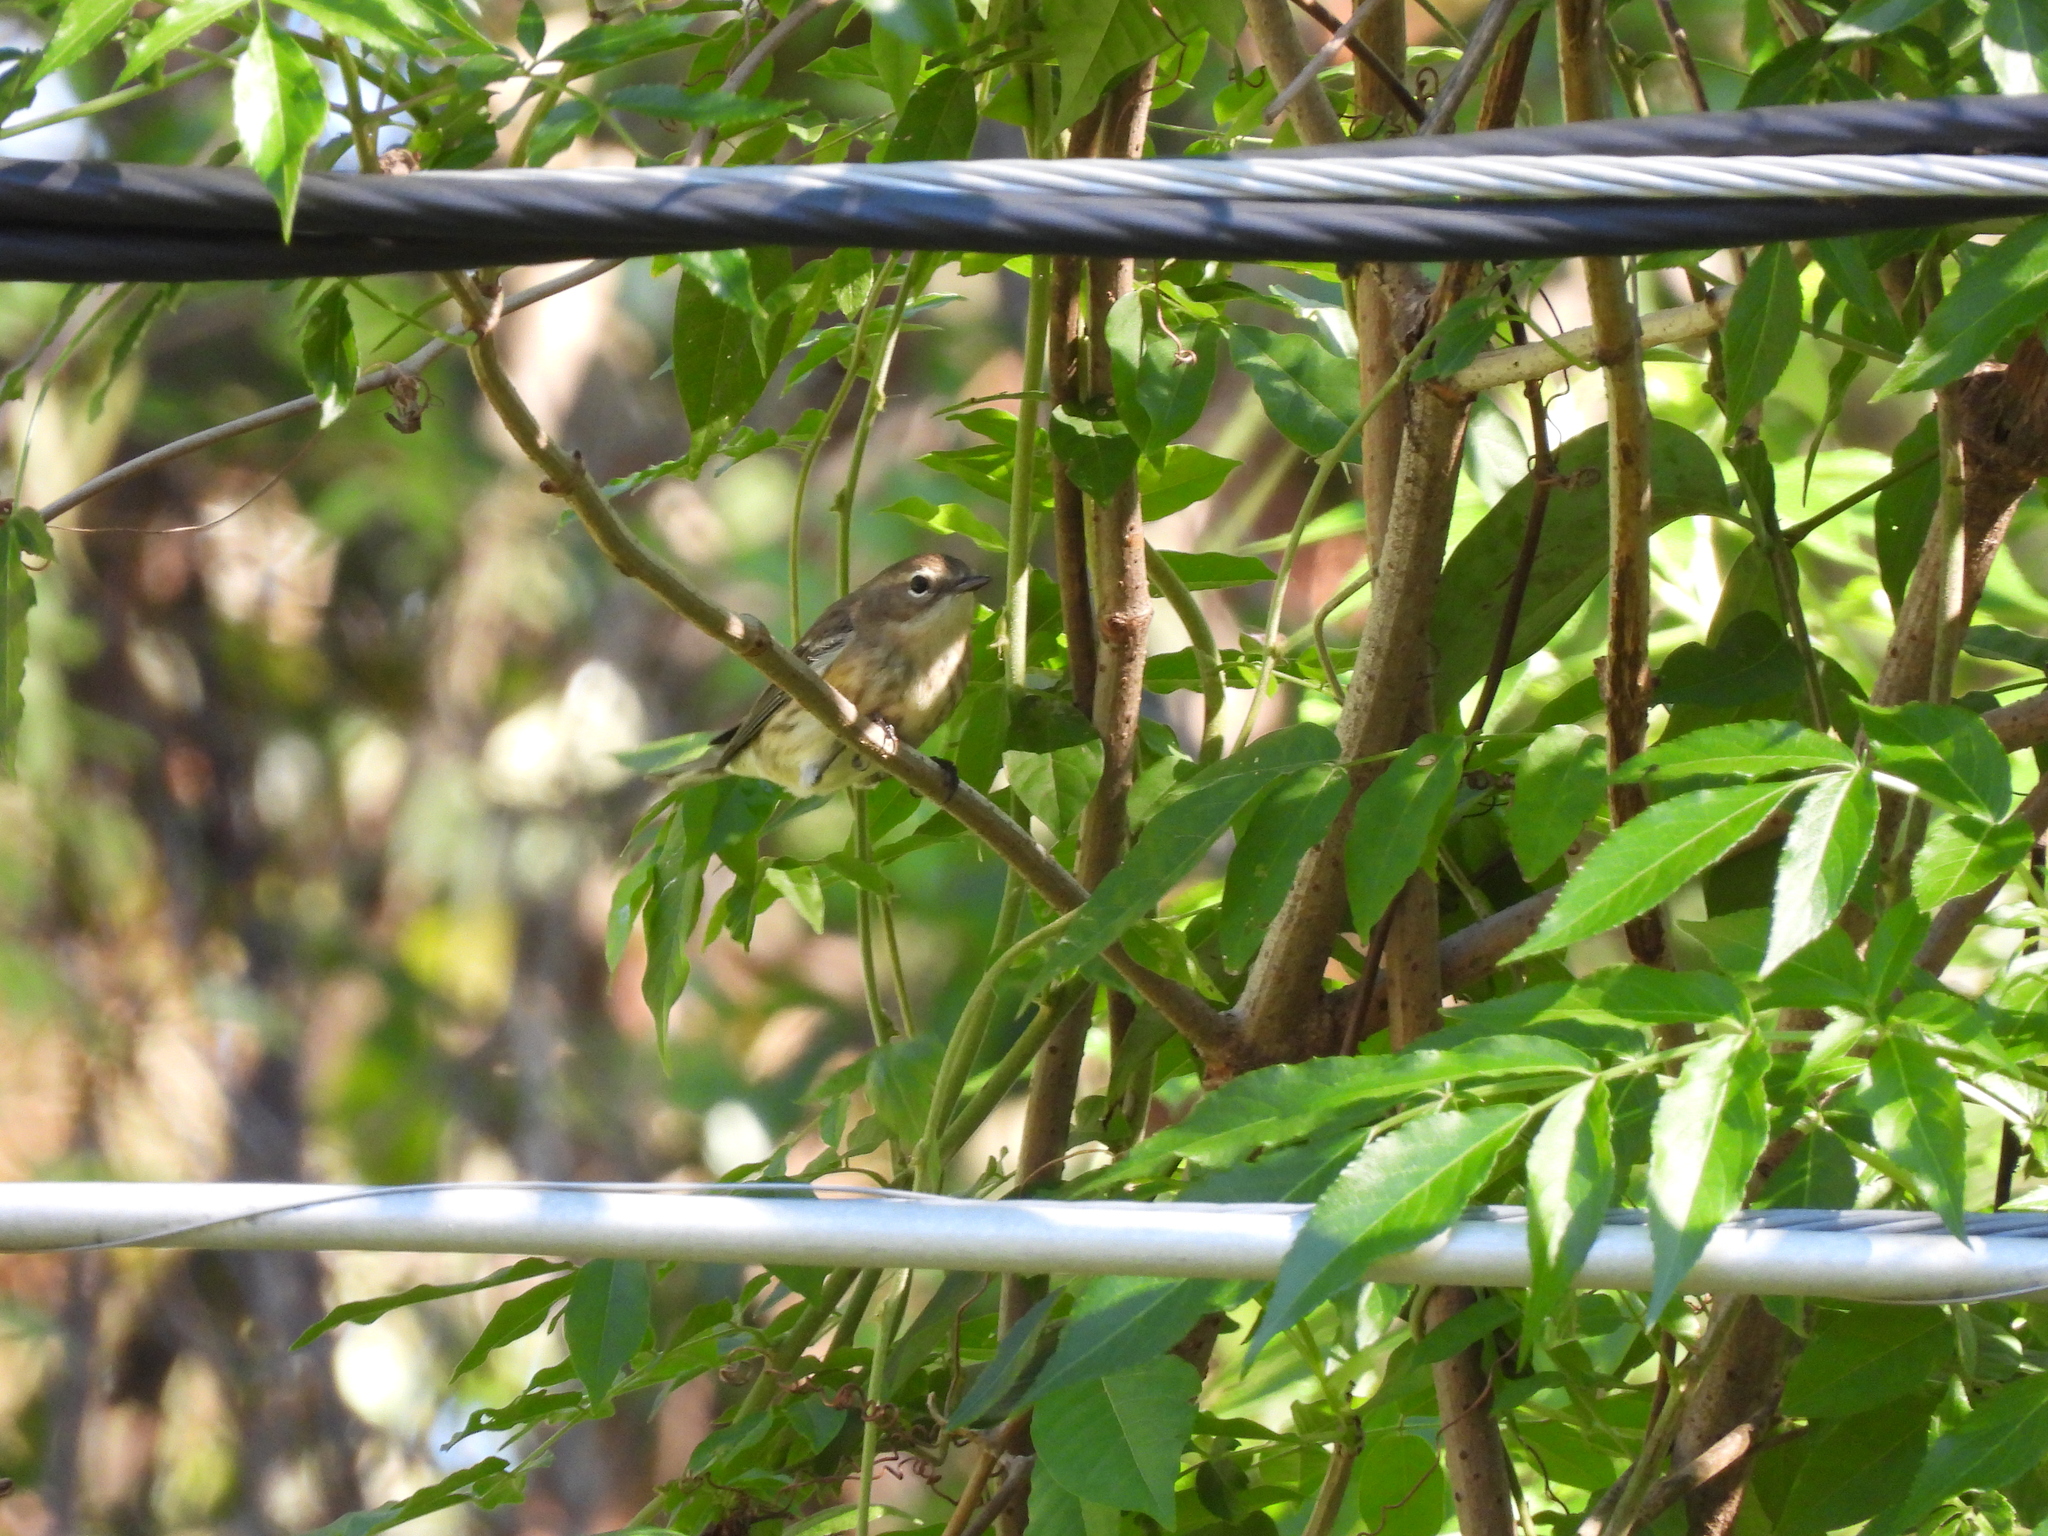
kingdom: Animalia
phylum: Chordata
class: Aves
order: Passeriformes
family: Parulidae
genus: Setophaga
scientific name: Setophaga coronata
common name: Myrtle warbler
